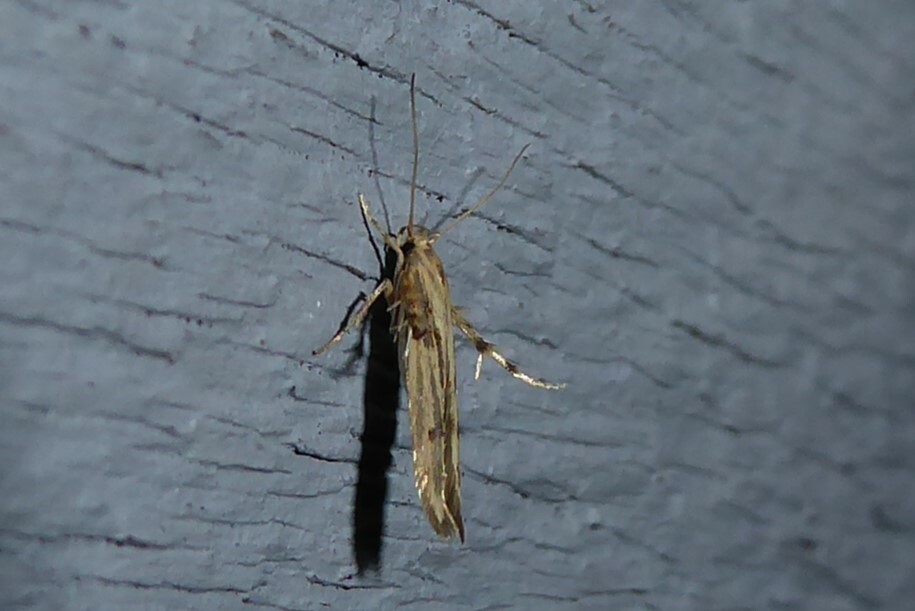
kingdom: Animalia
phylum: Arthropoda
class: Insecta
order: Lepidoptera
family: Stathmopodidae
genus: Stathmopoda
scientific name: Stathmopoda plumbiflua
